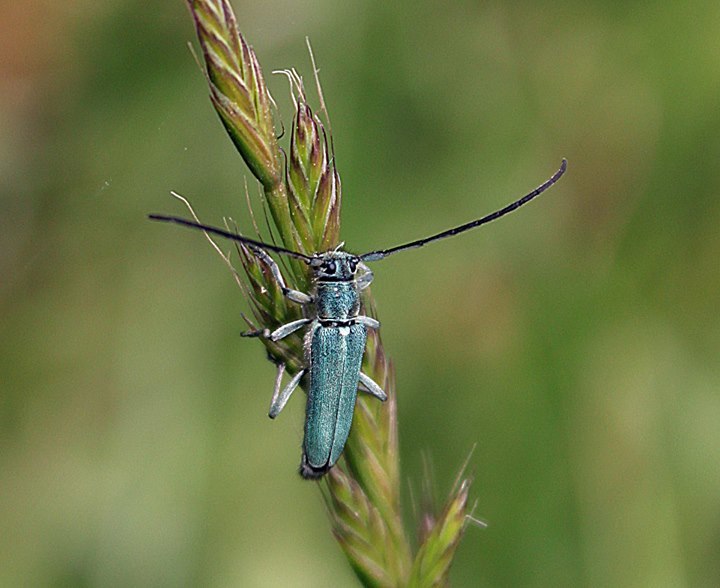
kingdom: Animalia
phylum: Arthropoda
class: Insecta
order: Coleoptera
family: Cerambycidae
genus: Phytoecia
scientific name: Phytoecia coerulescens
